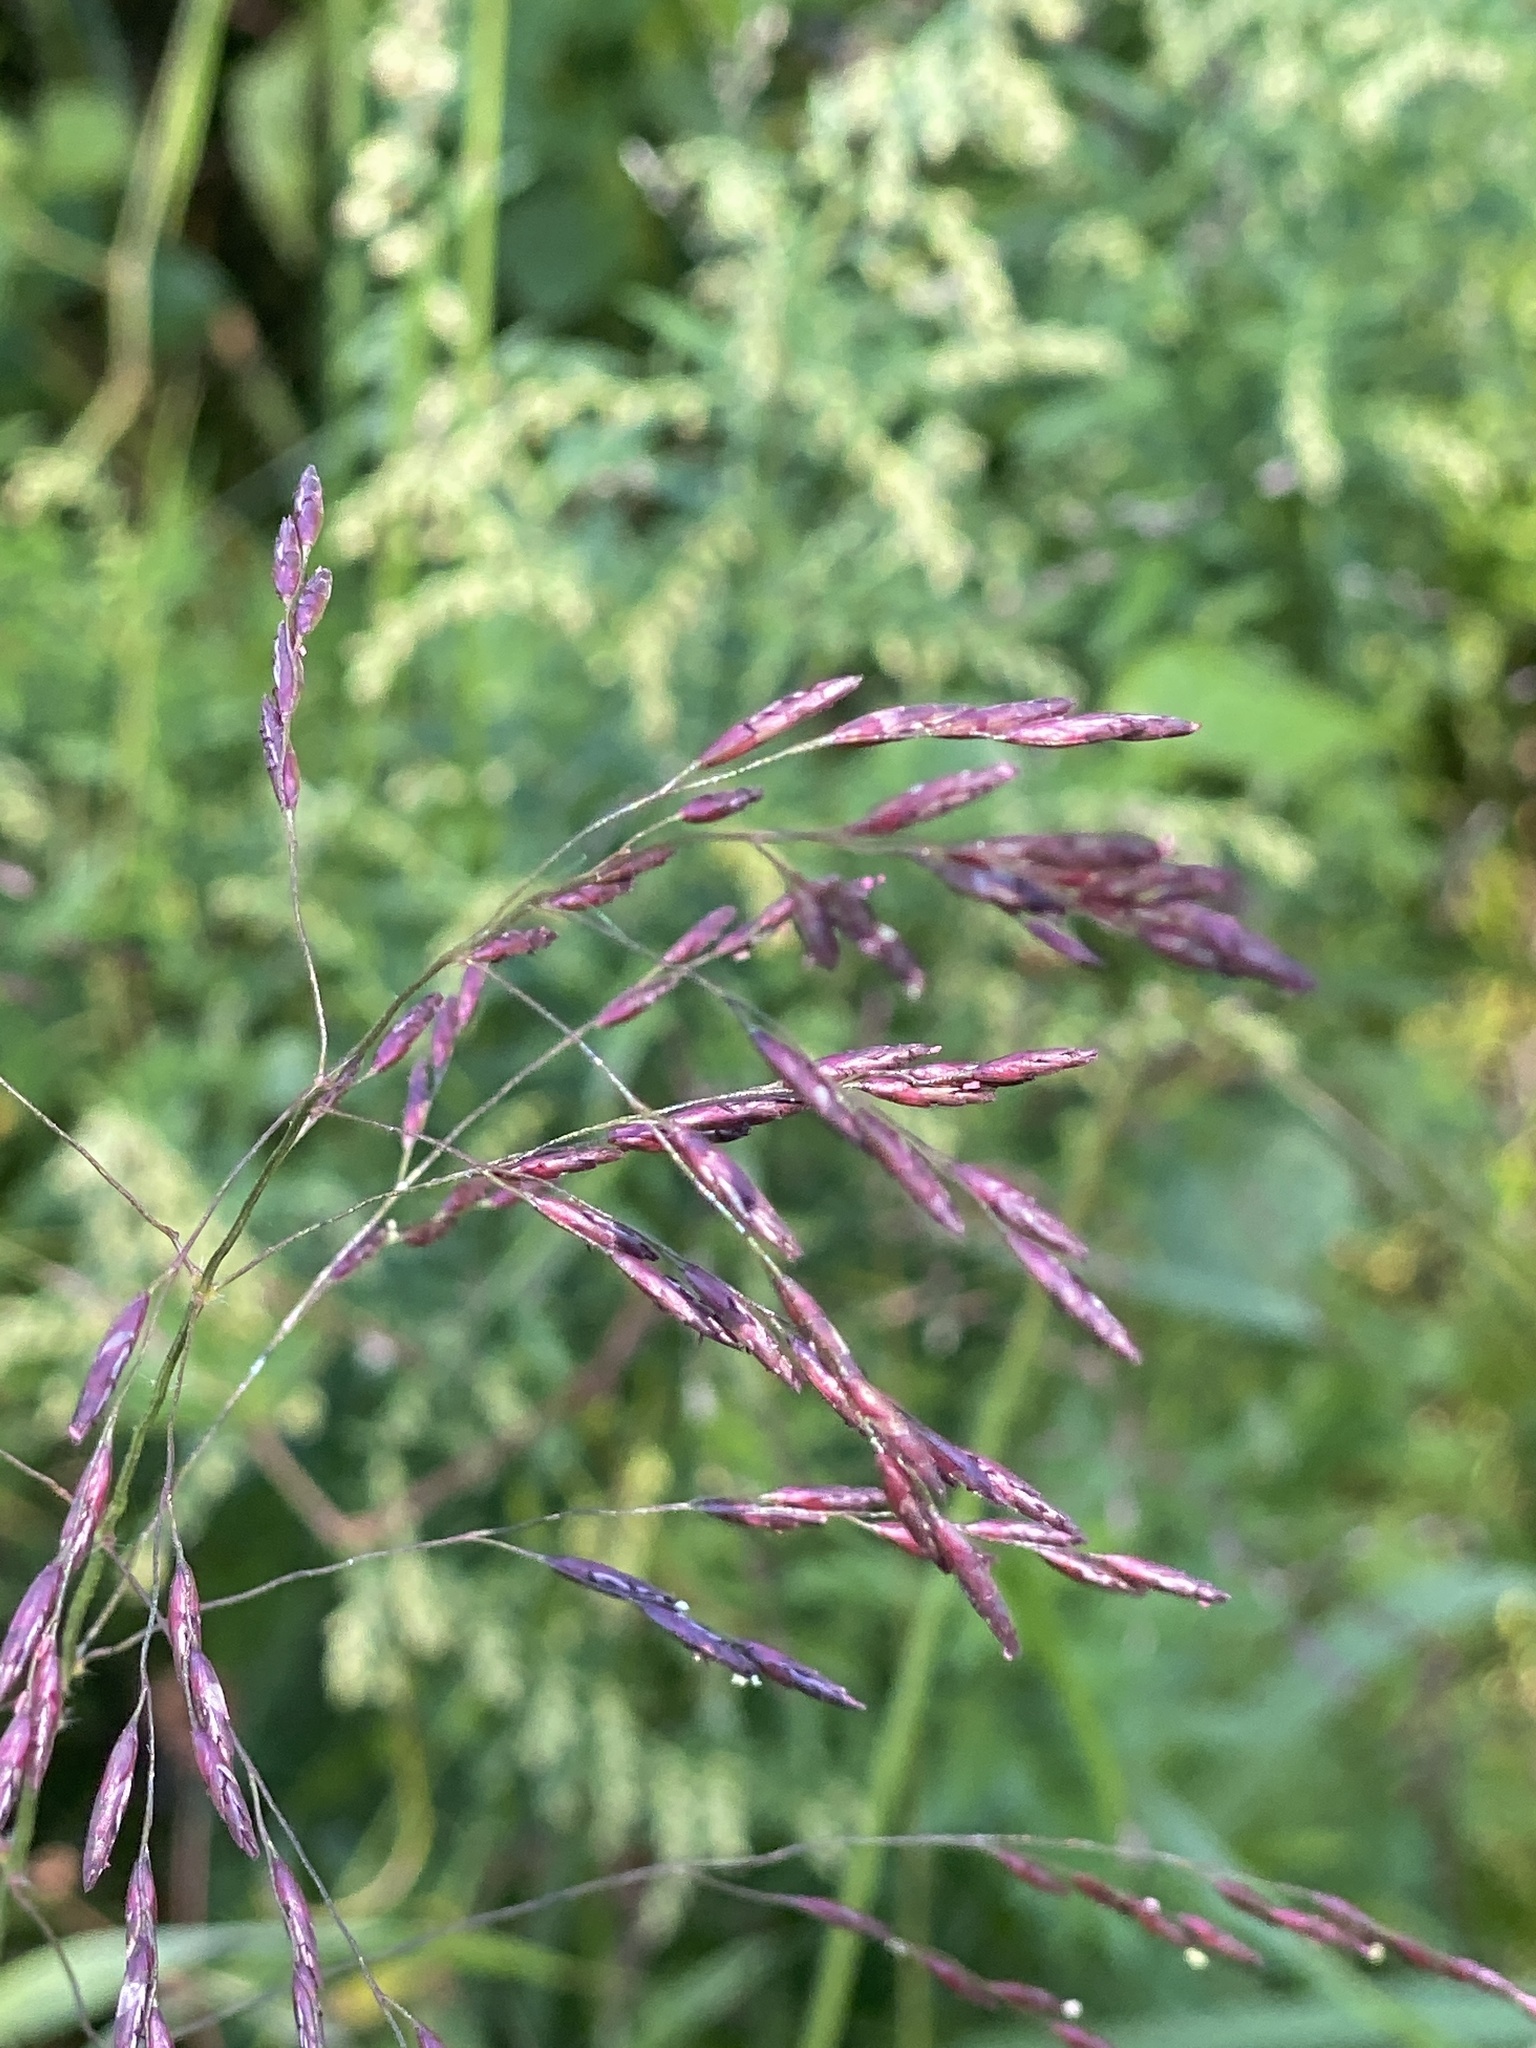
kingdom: Plantae
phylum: Tracheophyta
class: Liliopsida
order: Poales
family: Poaceae
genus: Tridens
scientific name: Tridens flavus
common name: Purpletop
